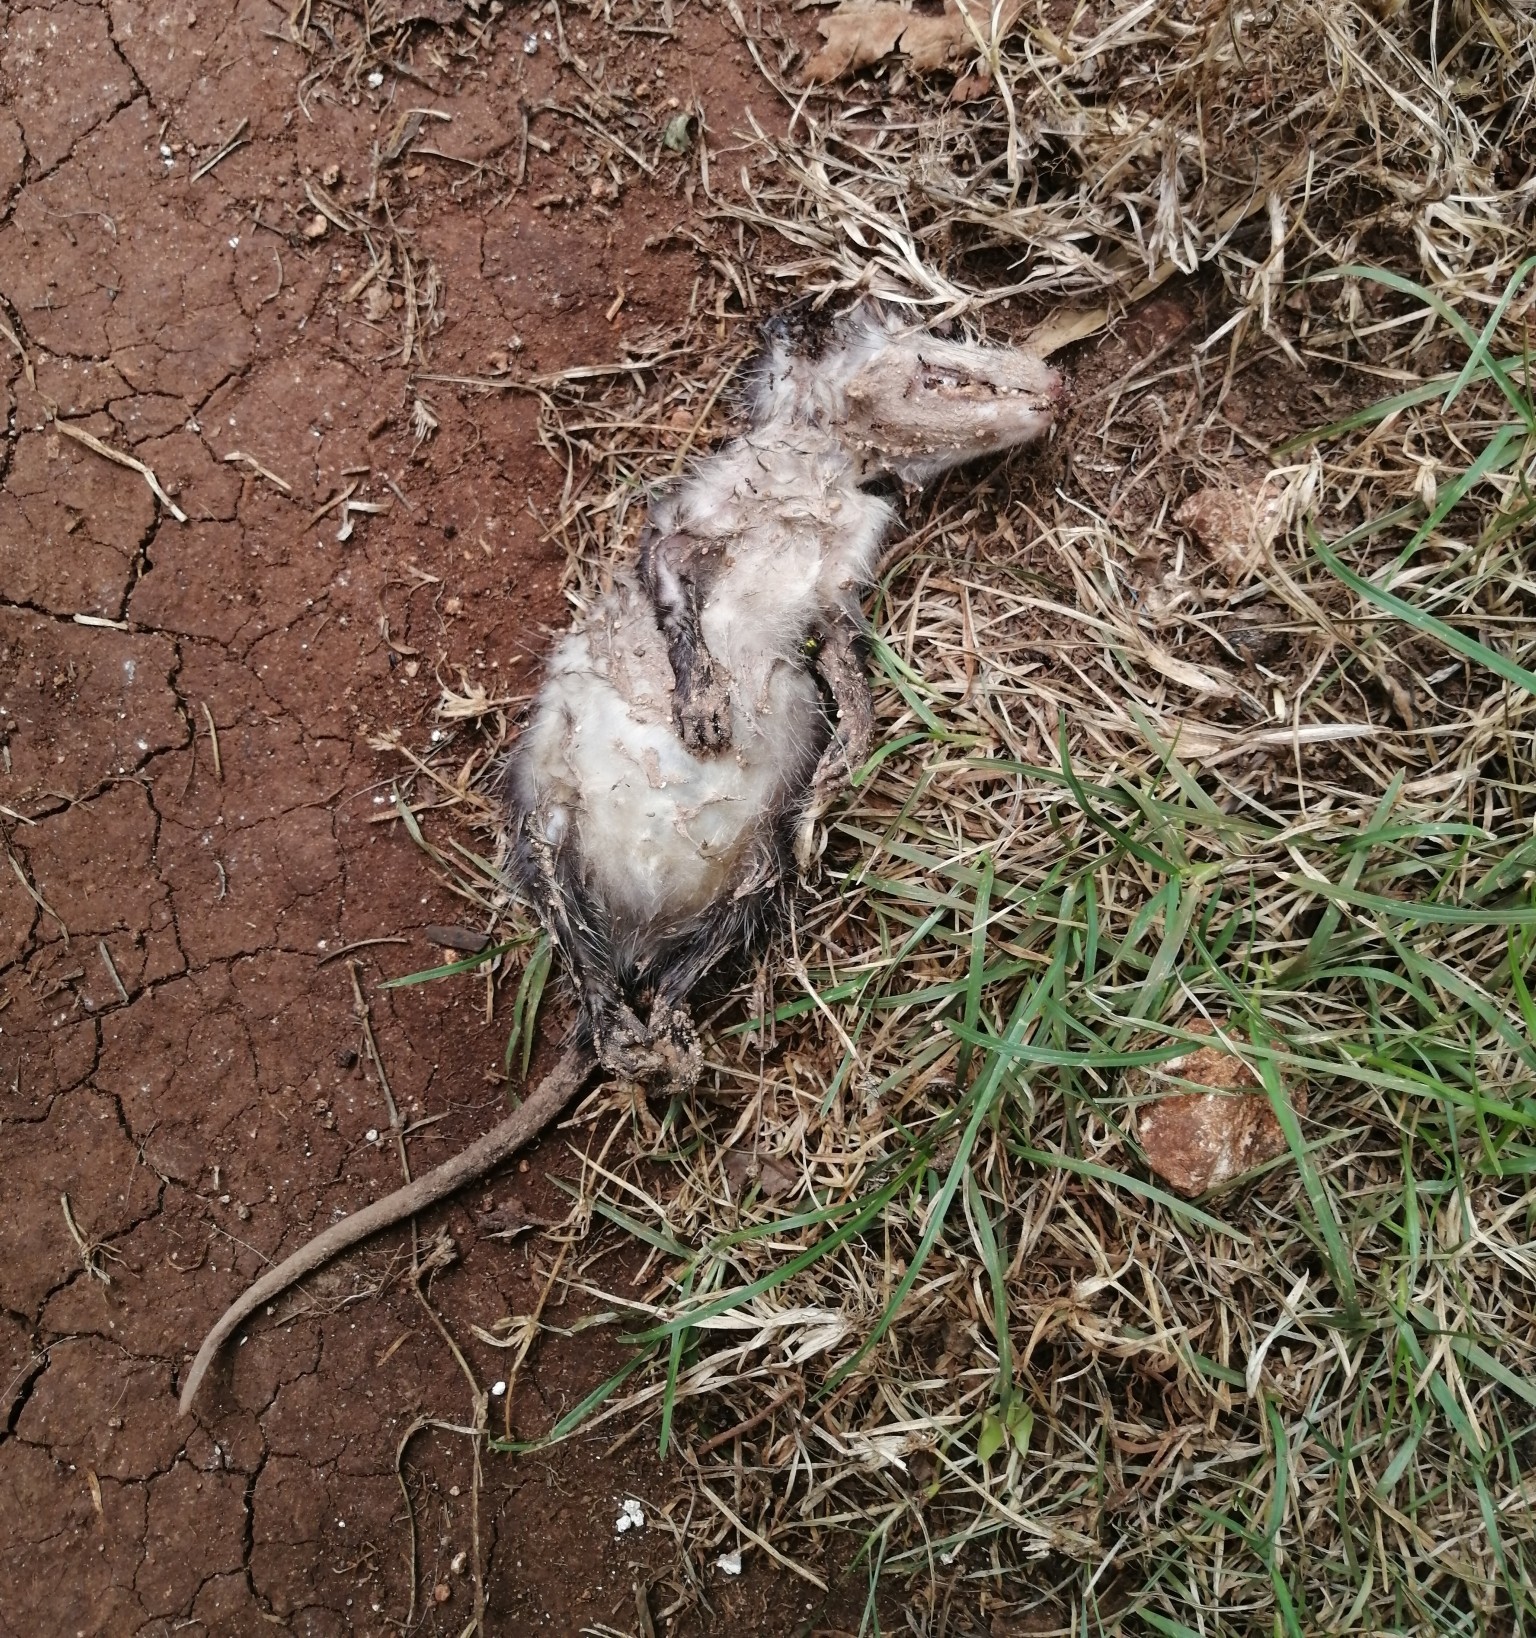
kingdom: Animalia
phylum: Chordata
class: Mammalia
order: Didelphimorphia
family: Didelphidae
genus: Didelphis
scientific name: Didelphis
